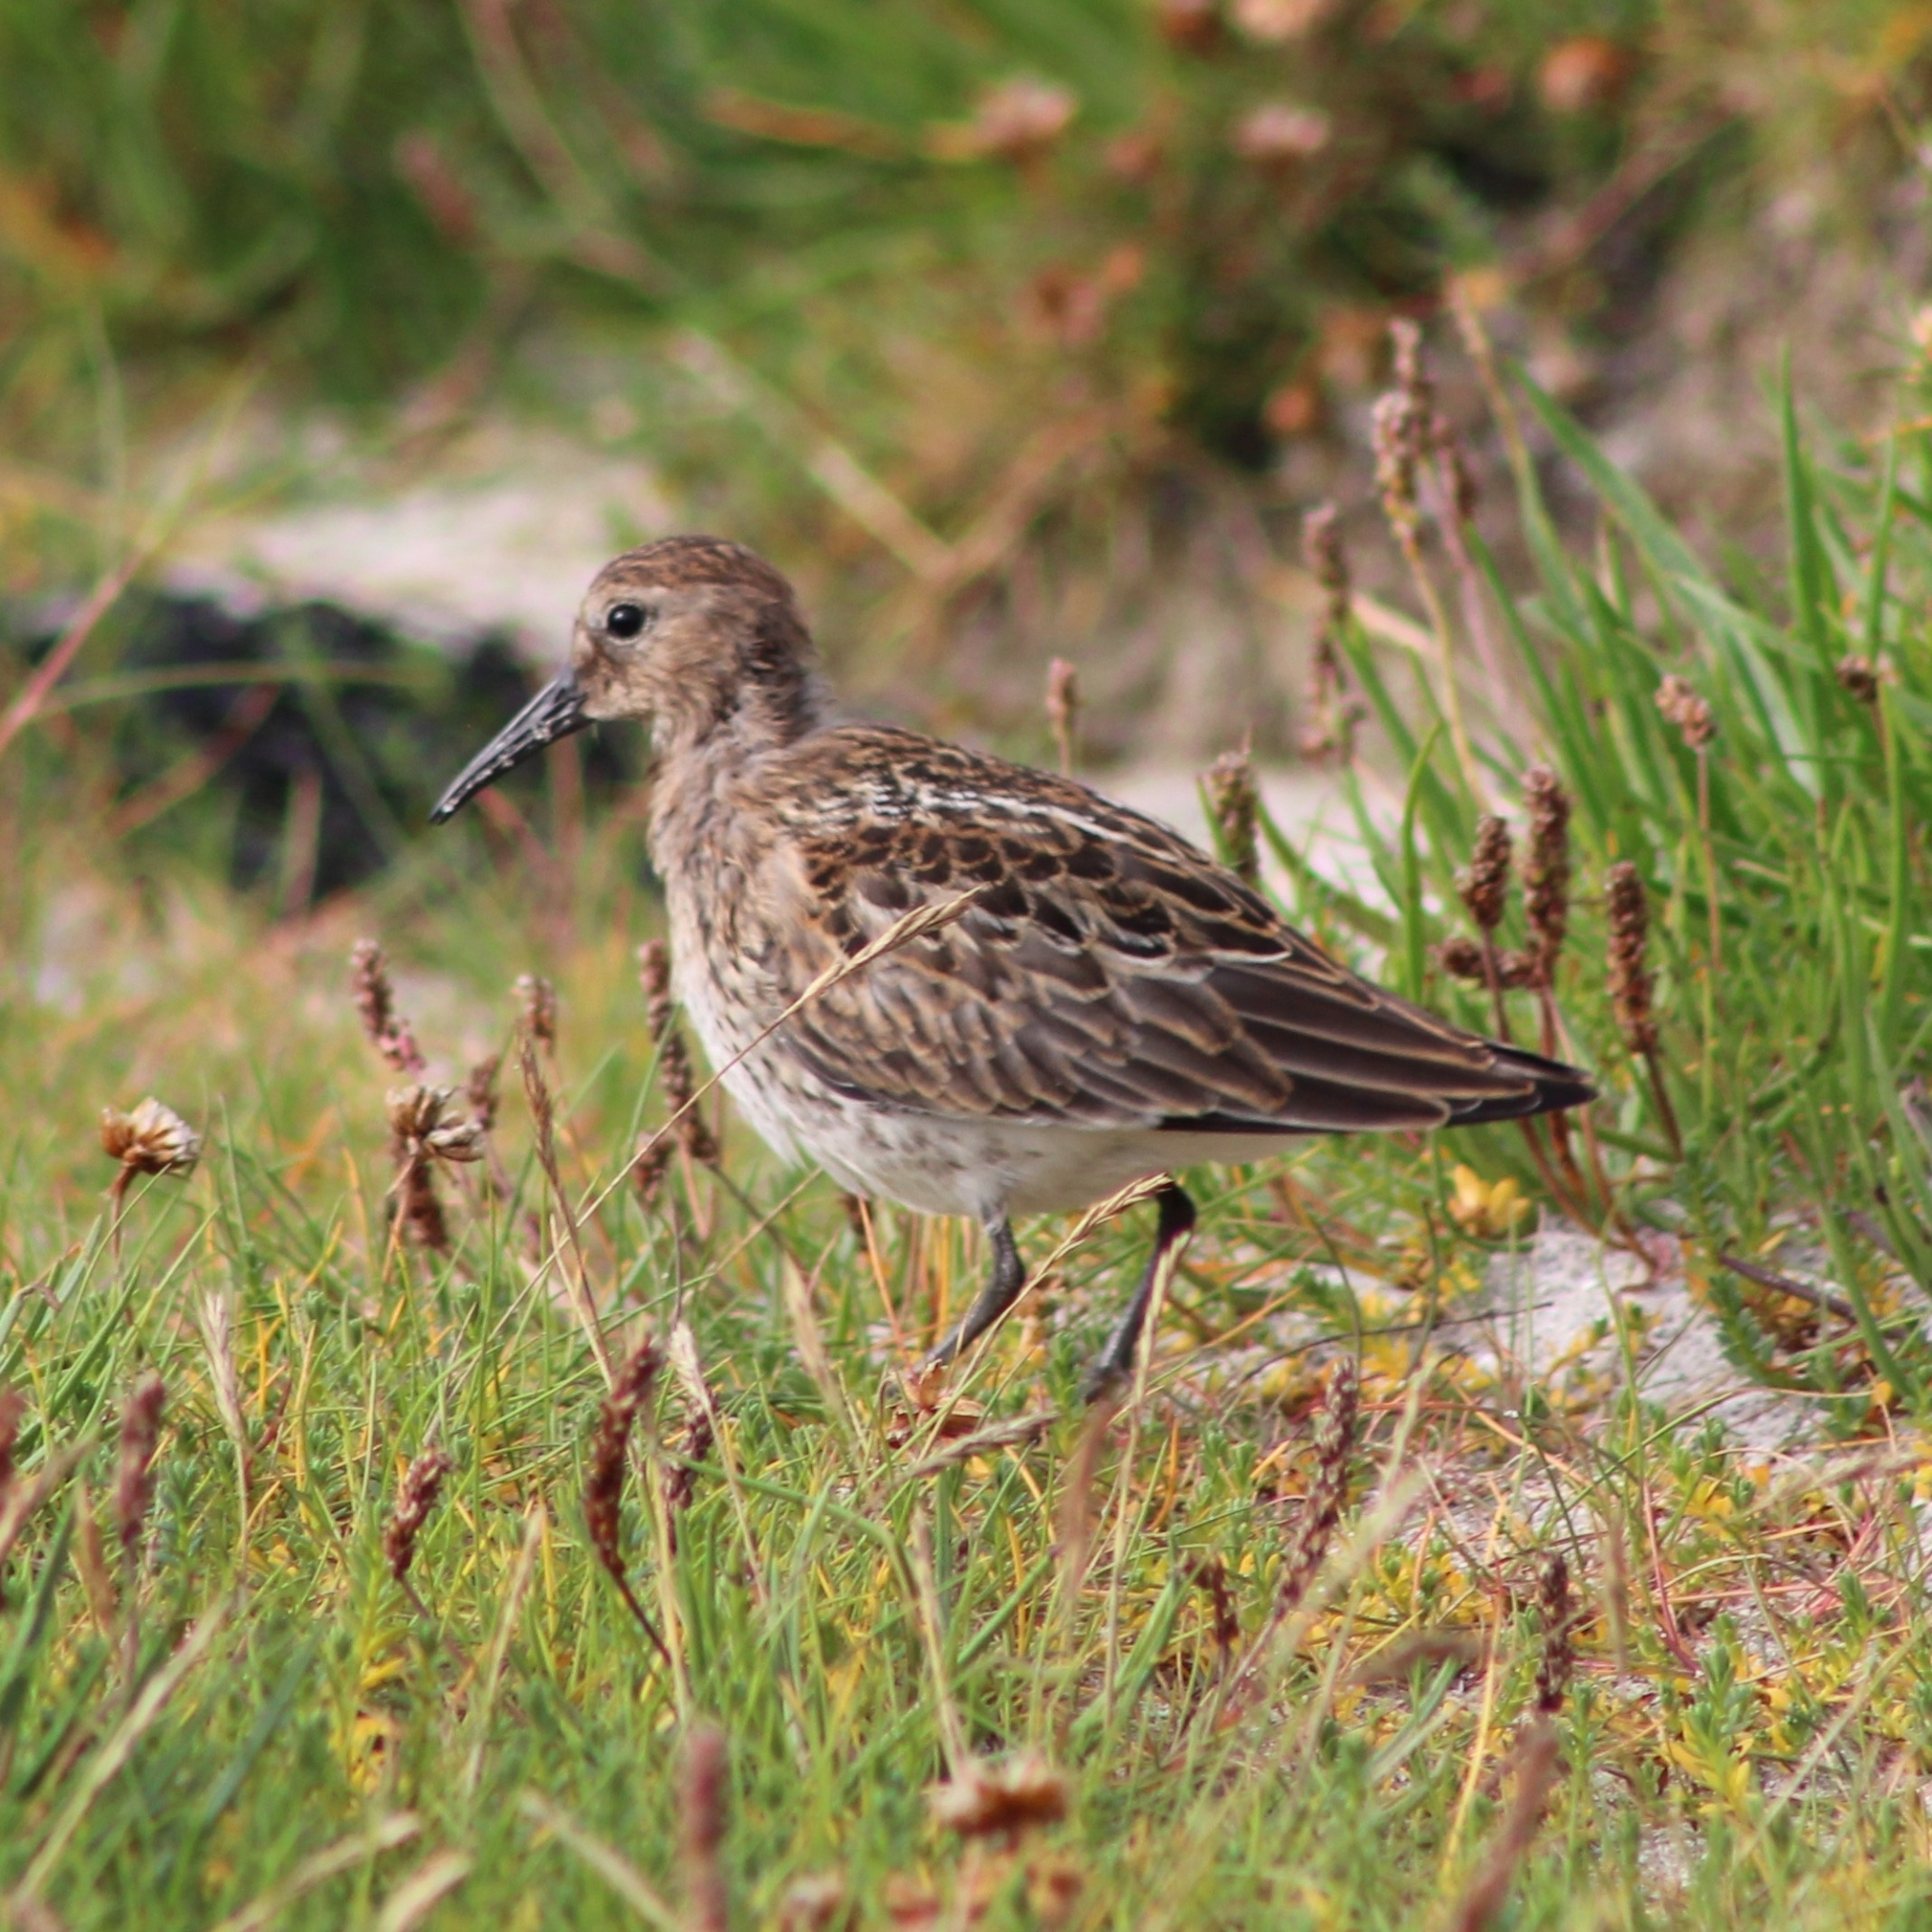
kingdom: Animalia
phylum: Chordata
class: Aves
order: Charadriiformes
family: Scolopacidae
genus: Calidris
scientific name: Calidris alpina
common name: Dunlin
